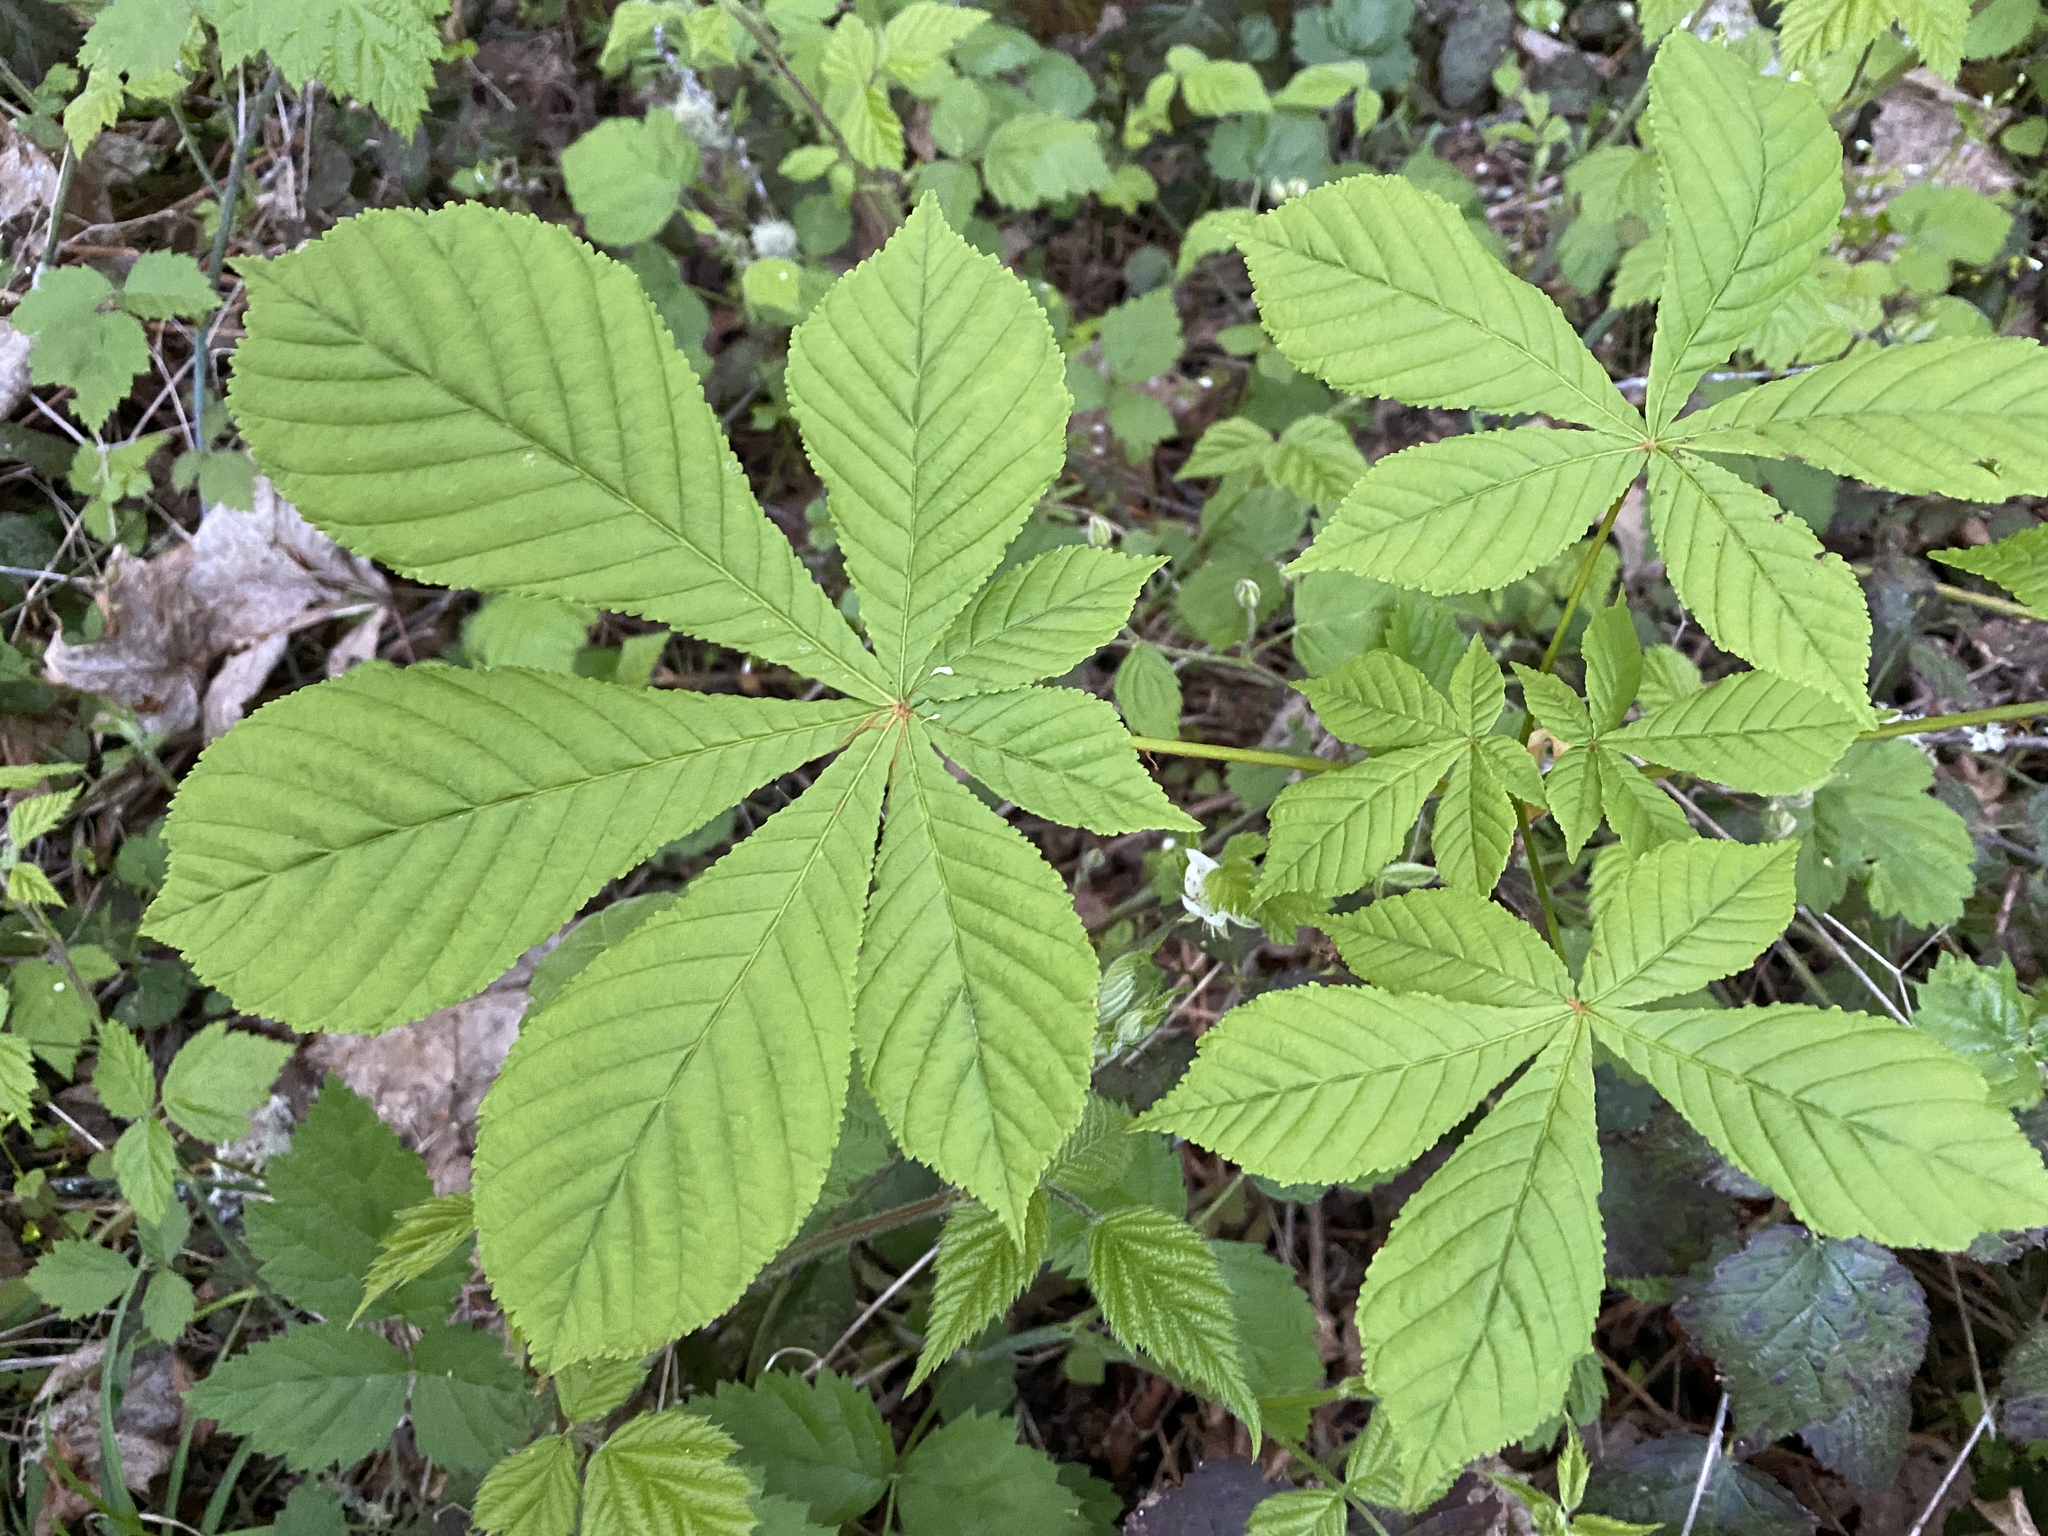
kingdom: Plantae
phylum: Tracheophyta
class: Magnoliopsida
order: Sapindales
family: Sapindaceae
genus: Aesculus
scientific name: Aesculus hippocastanum
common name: Horse-chestnut
